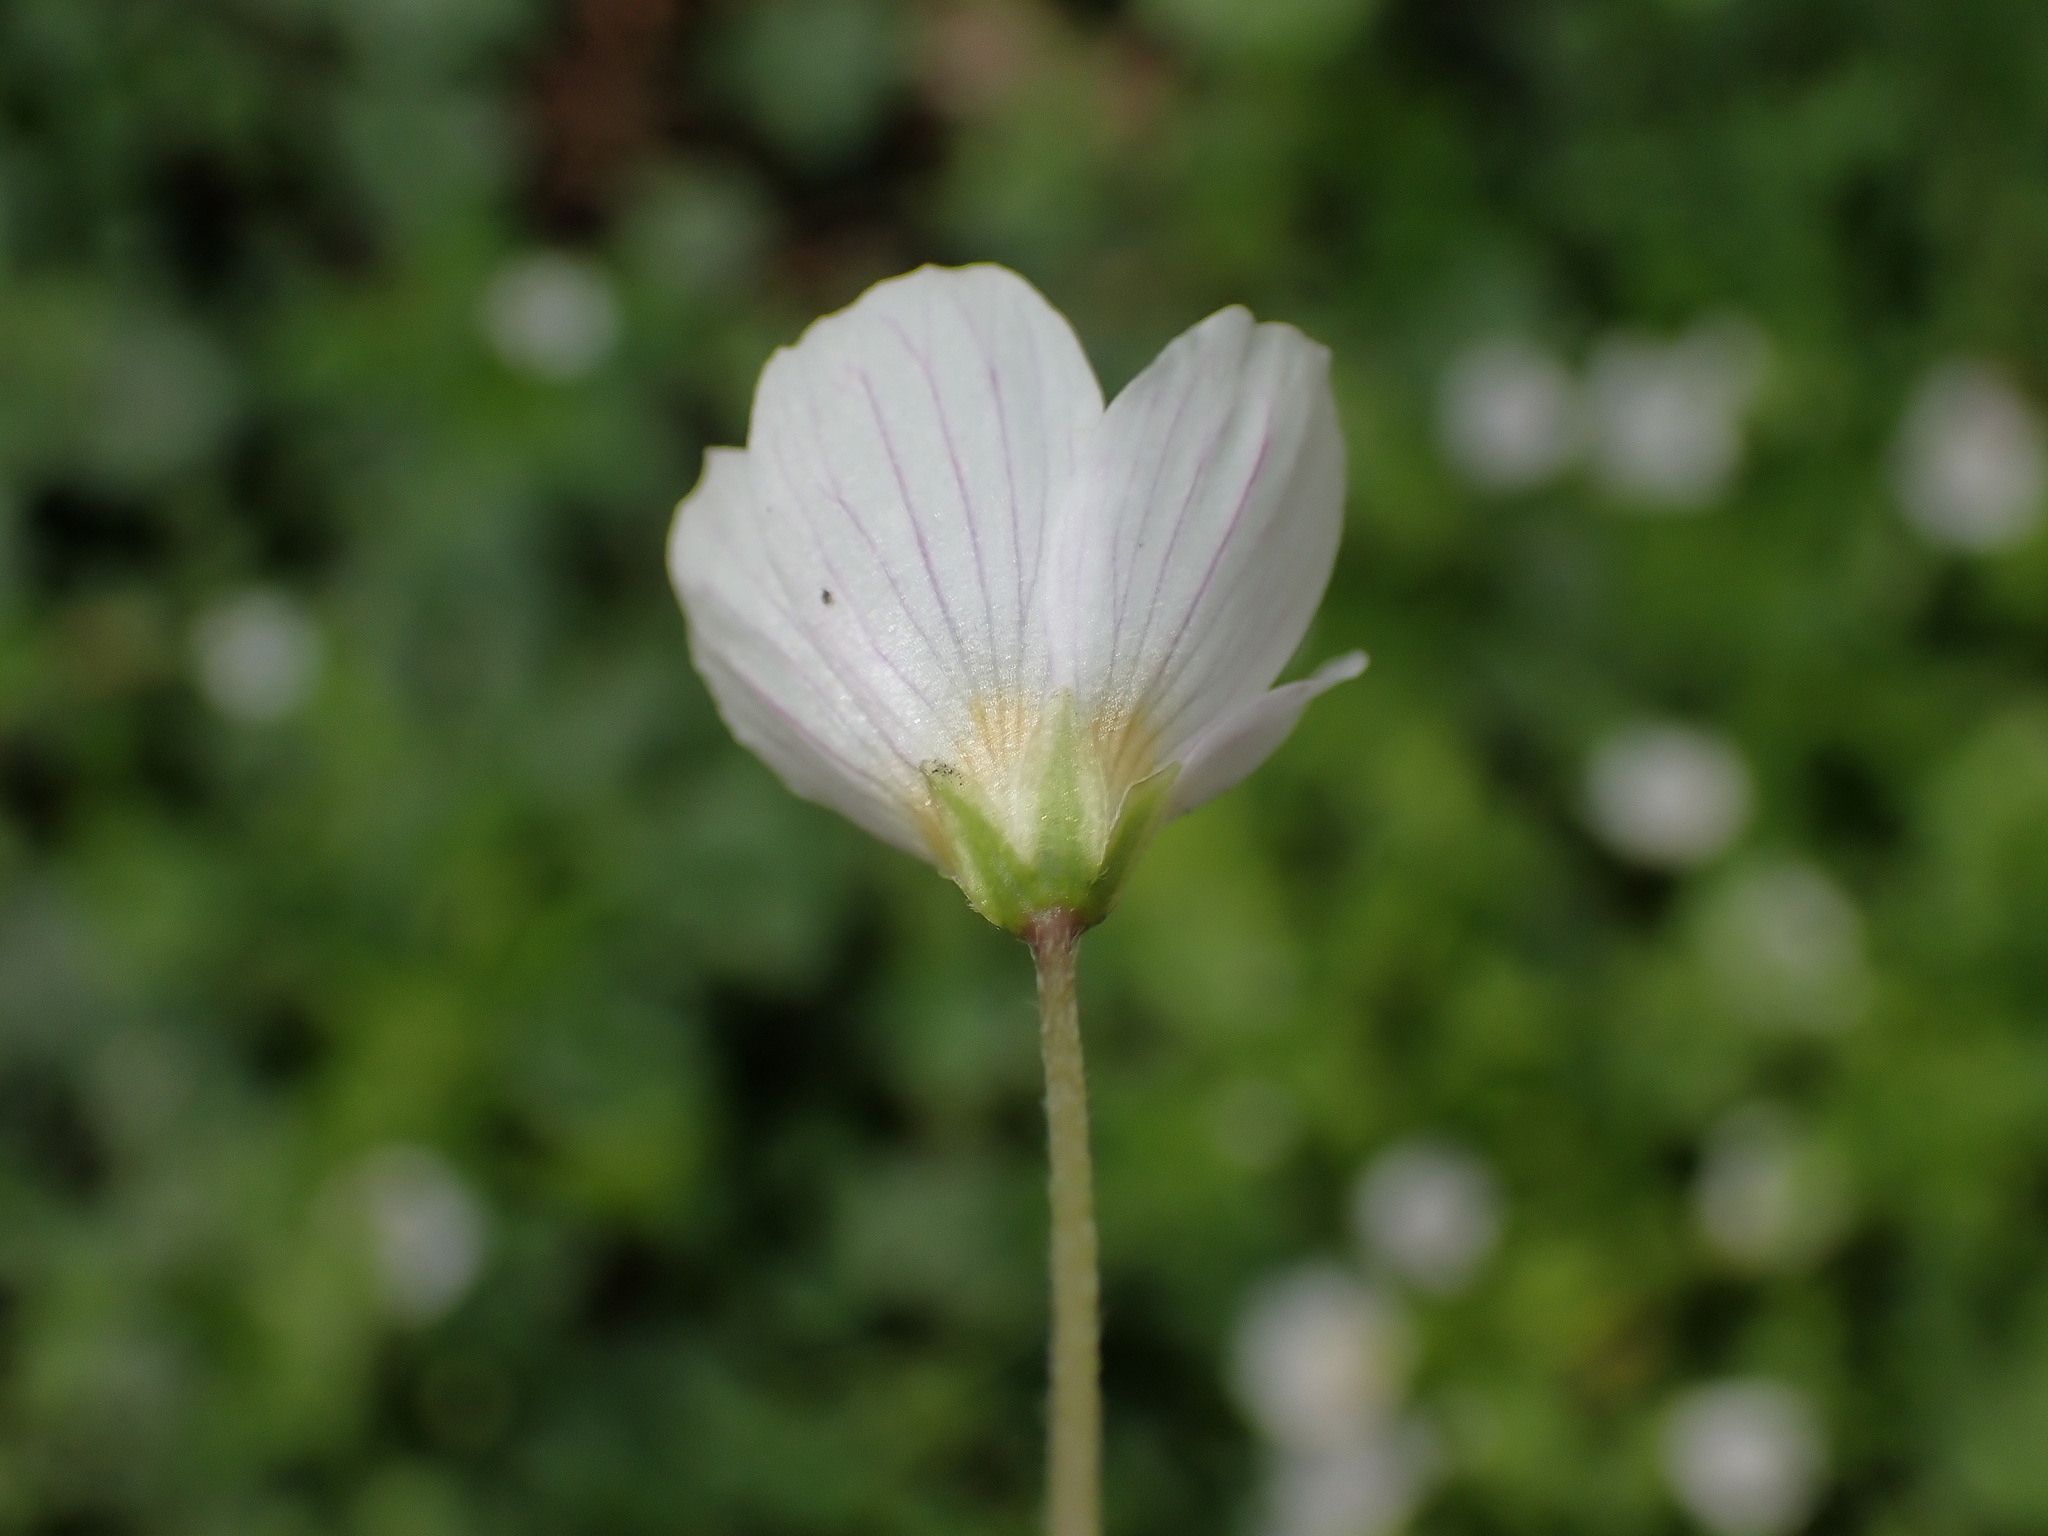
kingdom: Plantae
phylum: Tracheophyta
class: Magnoliopsida
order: Oxalidales
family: Oxalidaceae
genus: Oxalis
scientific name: Oxalis acetosella
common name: Wood-sorrel
